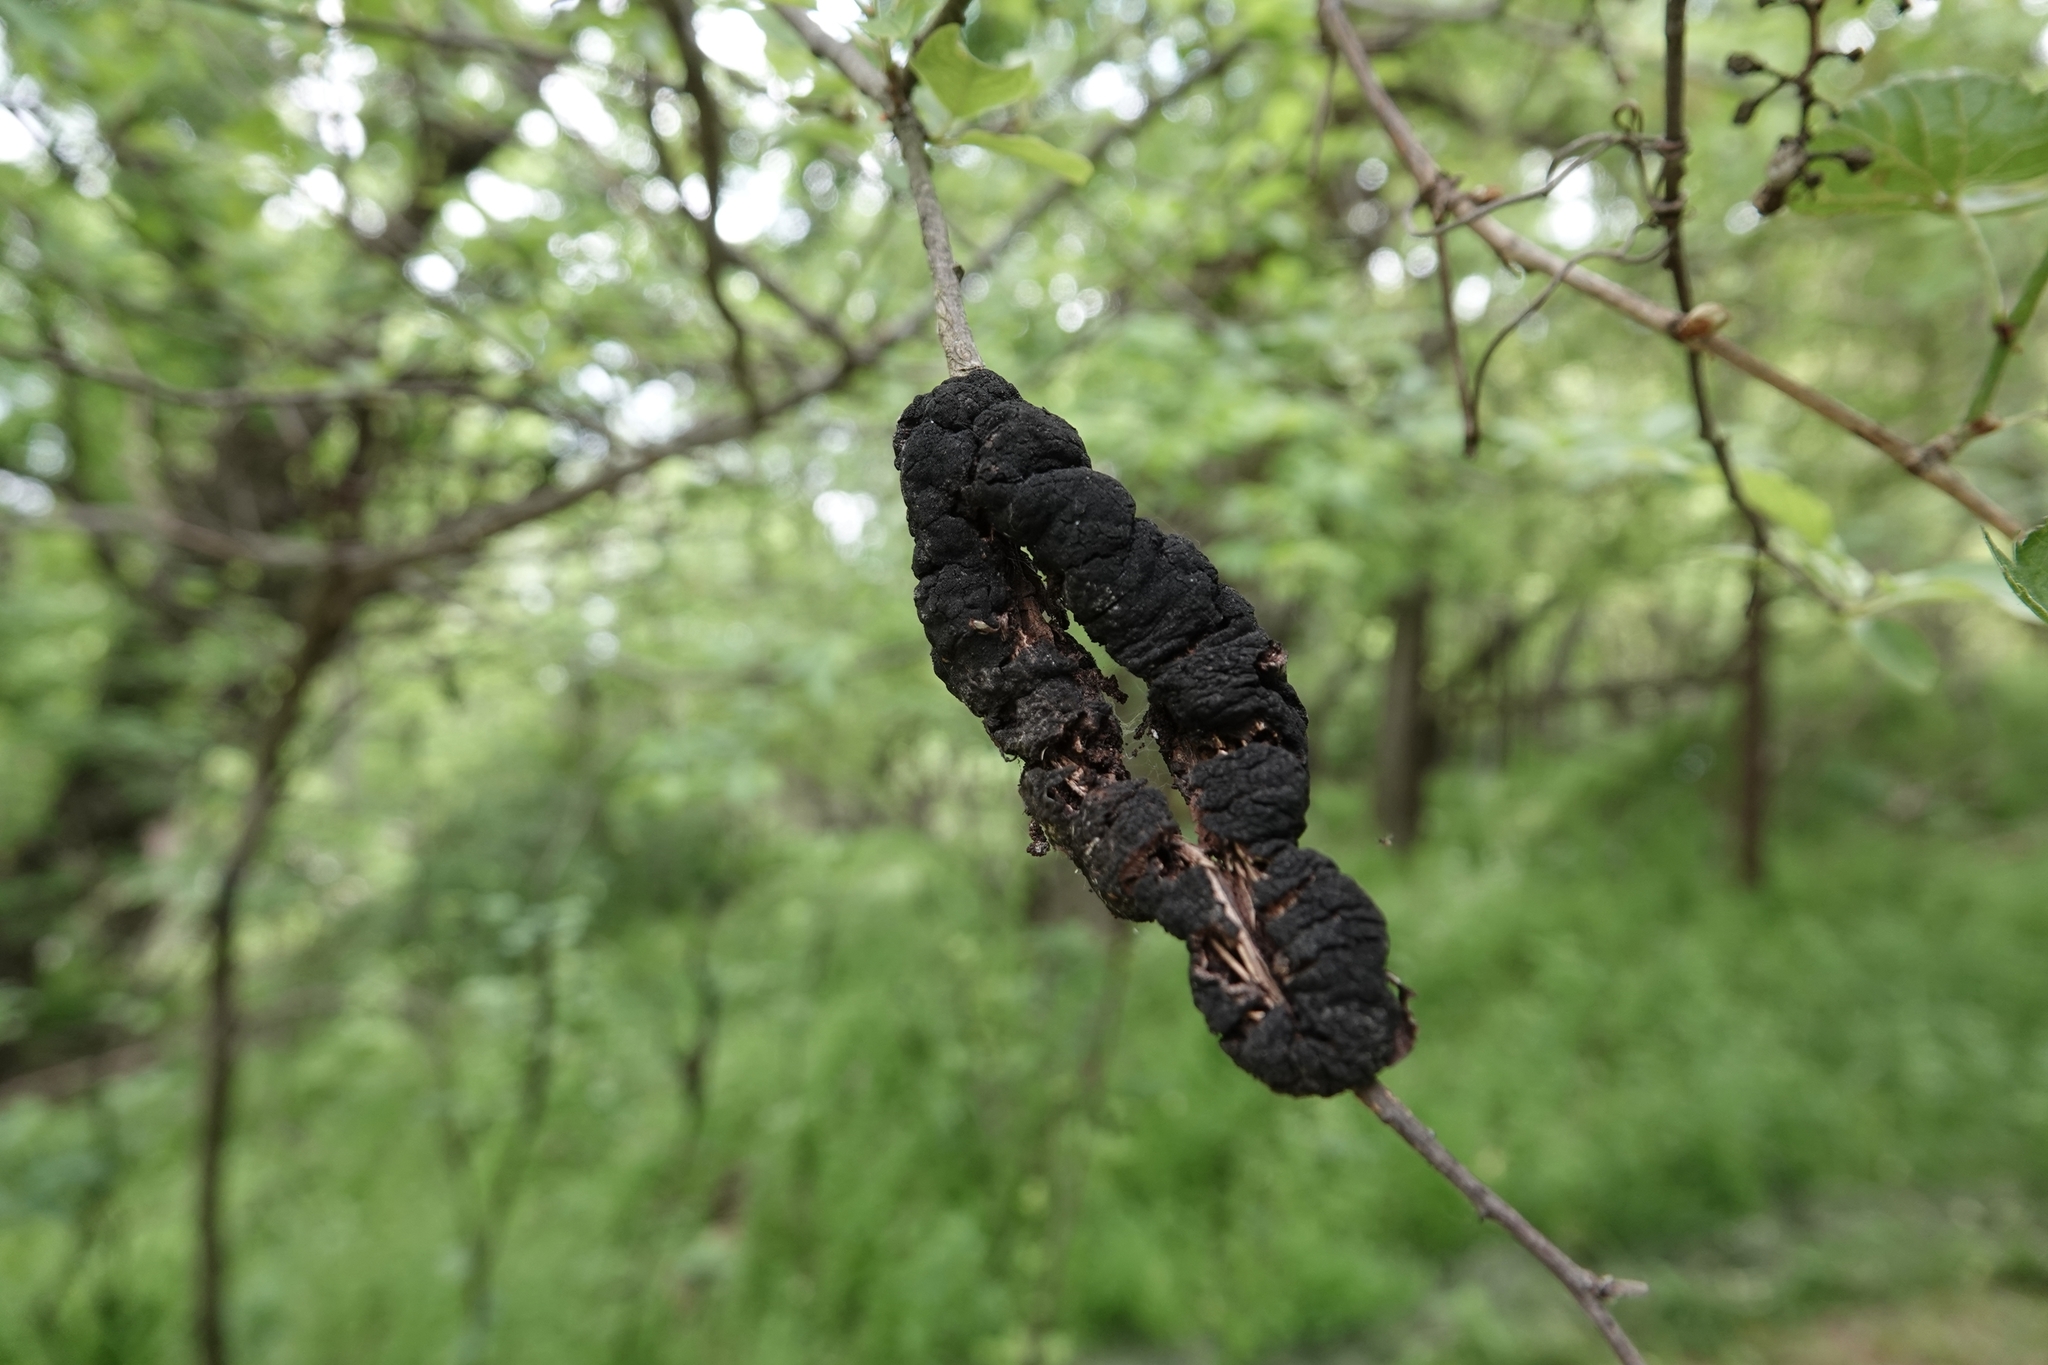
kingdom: Fungi
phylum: Ascomycota
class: Dothideomycetes
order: Venturiales
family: Venturiaceae
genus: Apiosporina
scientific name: Apiosporina morbosa
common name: Black knot
